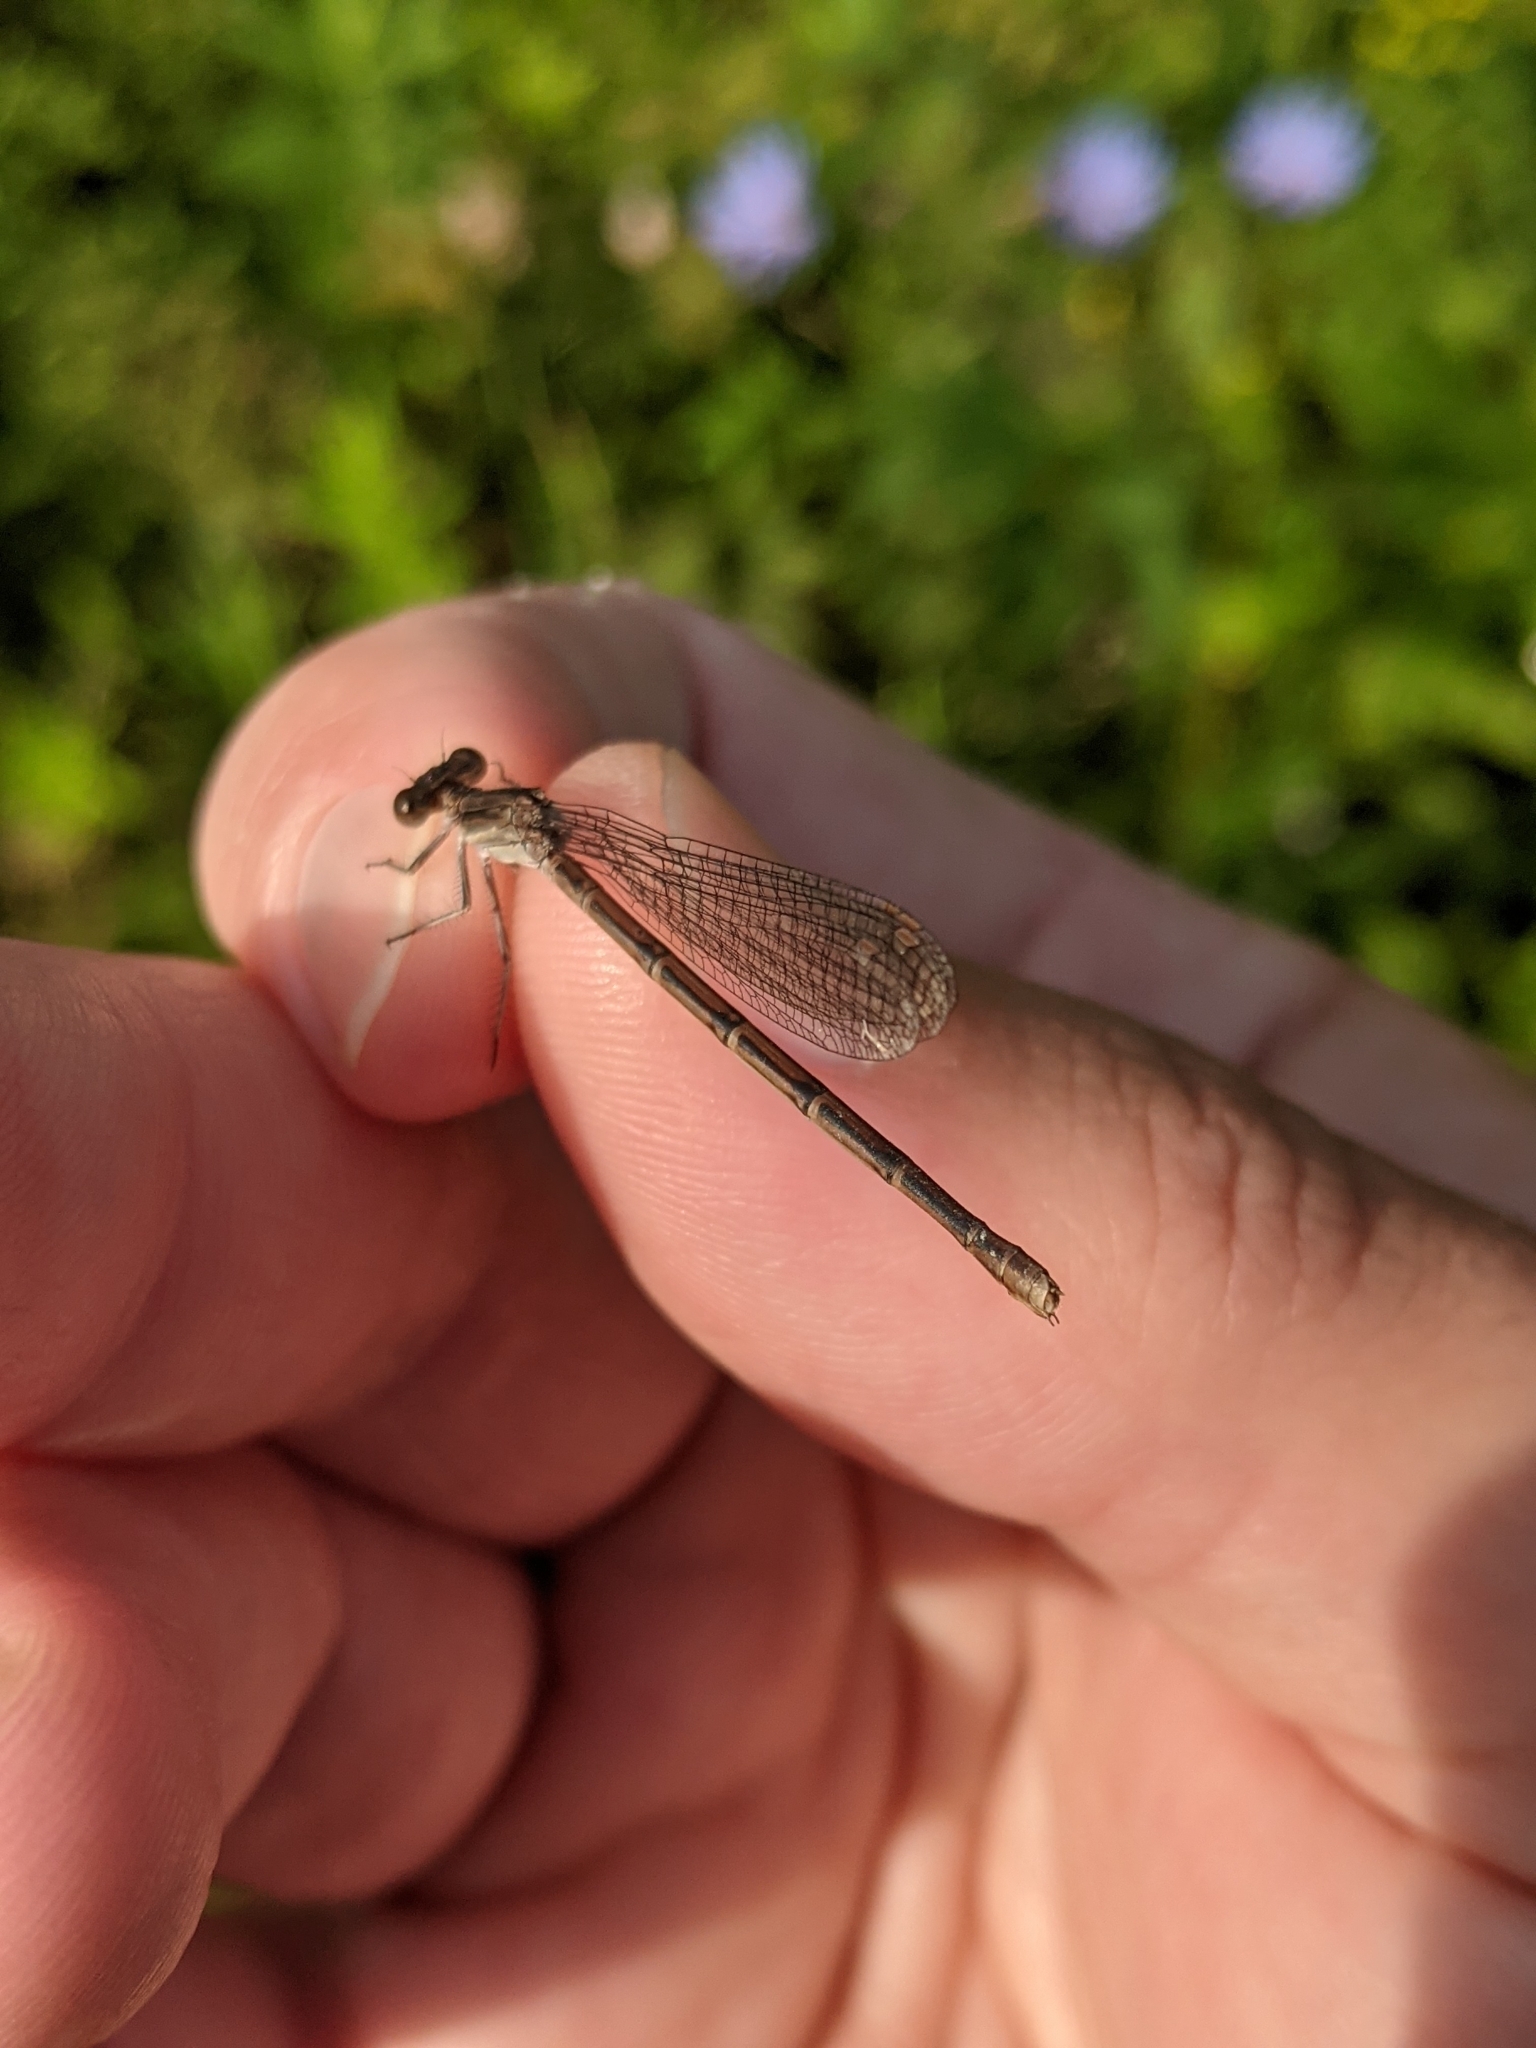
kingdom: Animalia
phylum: Arthropoda
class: Insecta
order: Odonata
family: Coenagrionidae
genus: Argia
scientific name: Argia fumipennis
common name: Variable dancer
